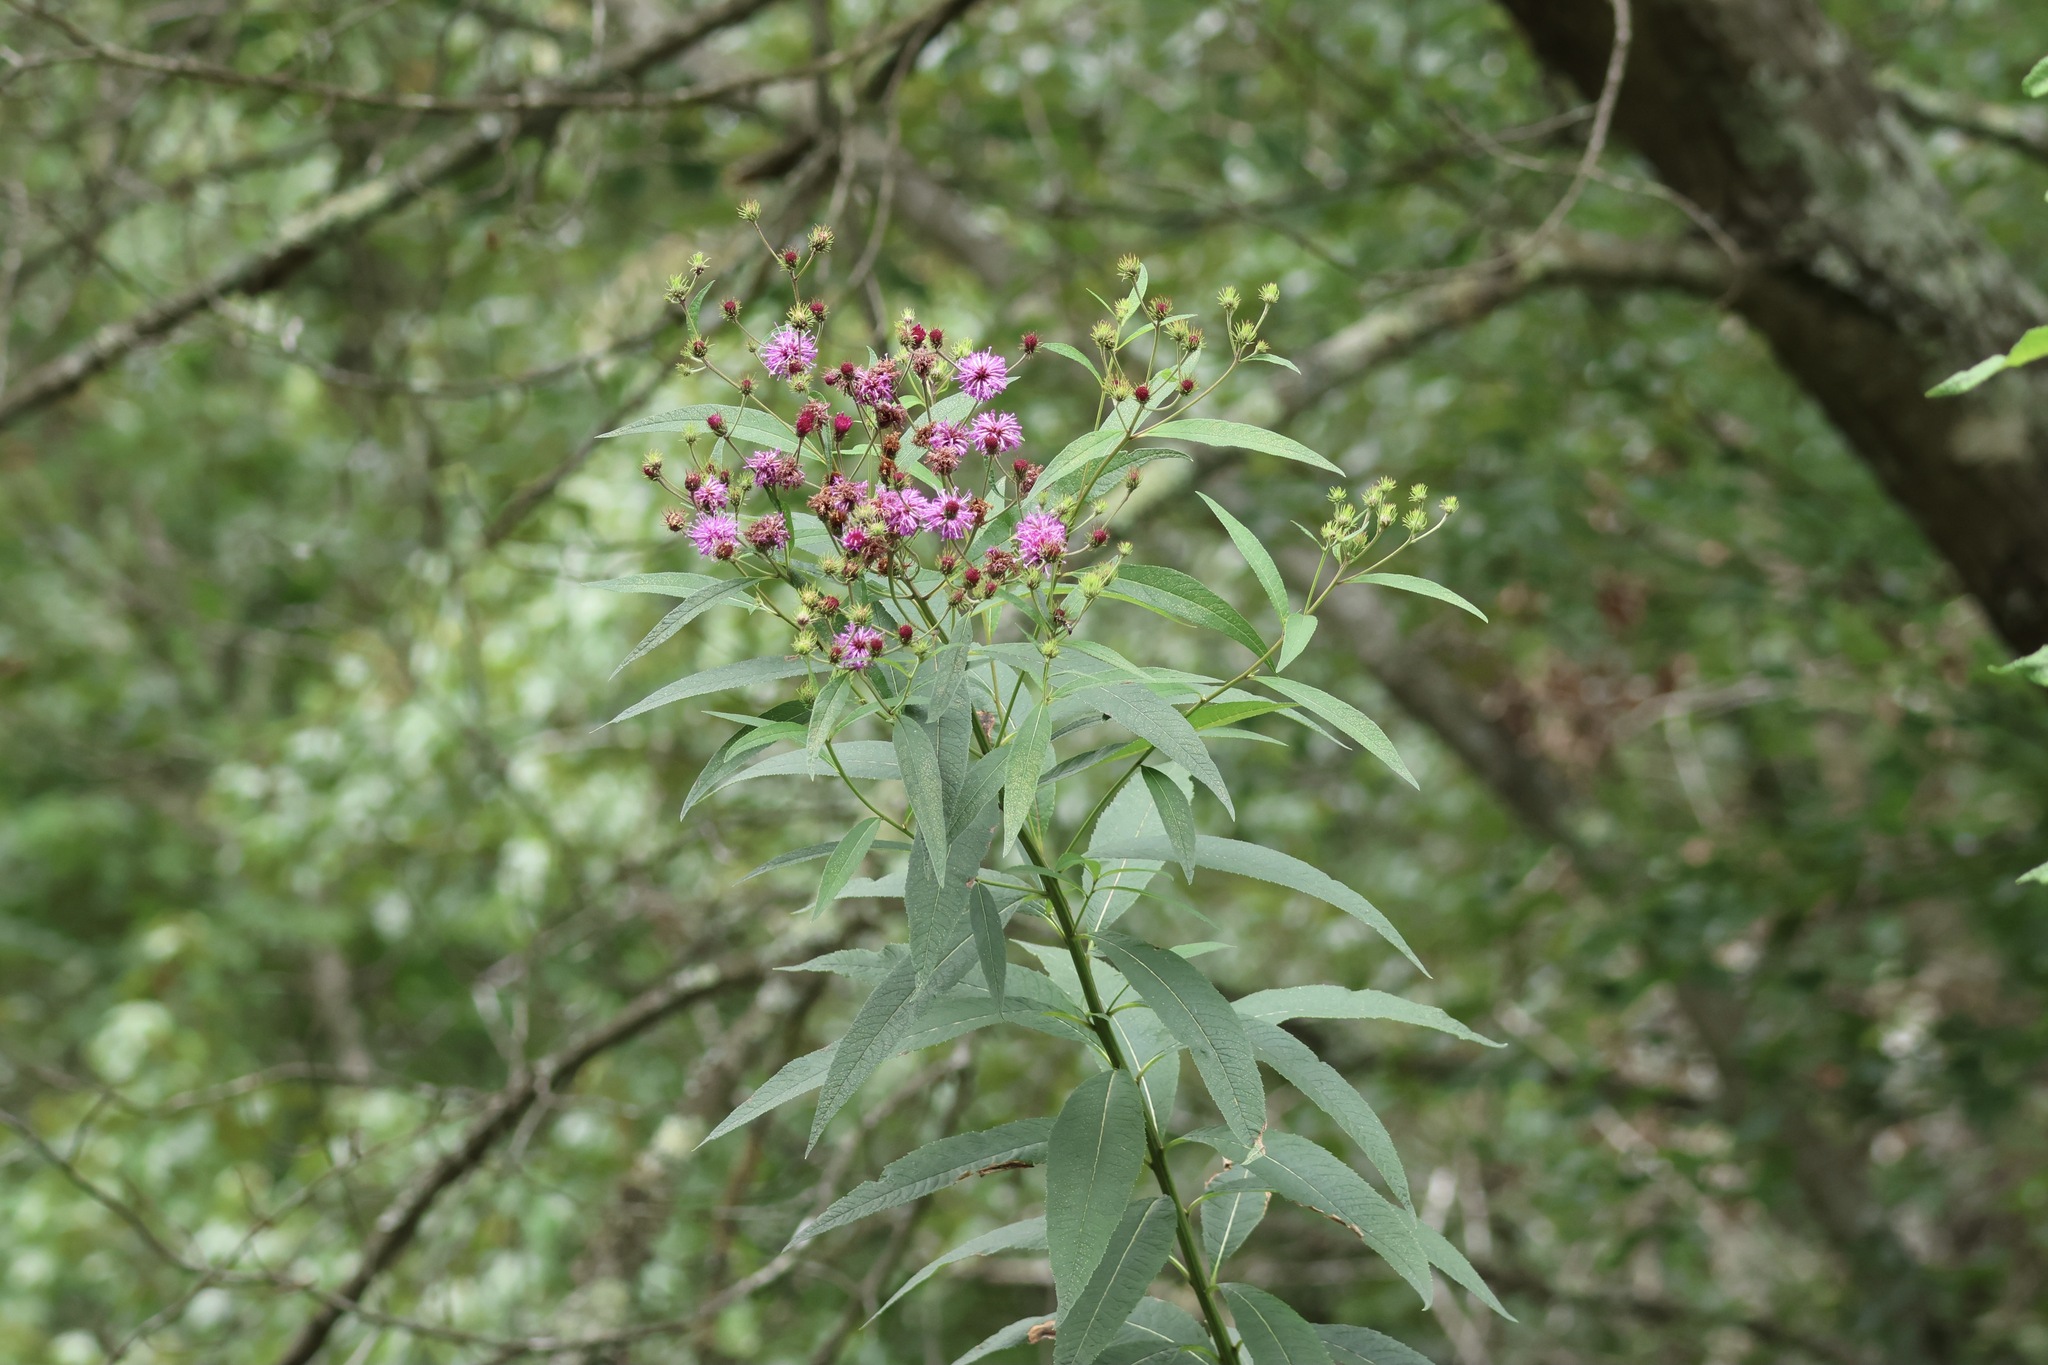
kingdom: Plantae
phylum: Tracheophyta
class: Magnoliopsida
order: Asterales
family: Asteraceae
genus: Vernonia
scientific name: Vernonia noveboracensis
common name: New york ironweed
